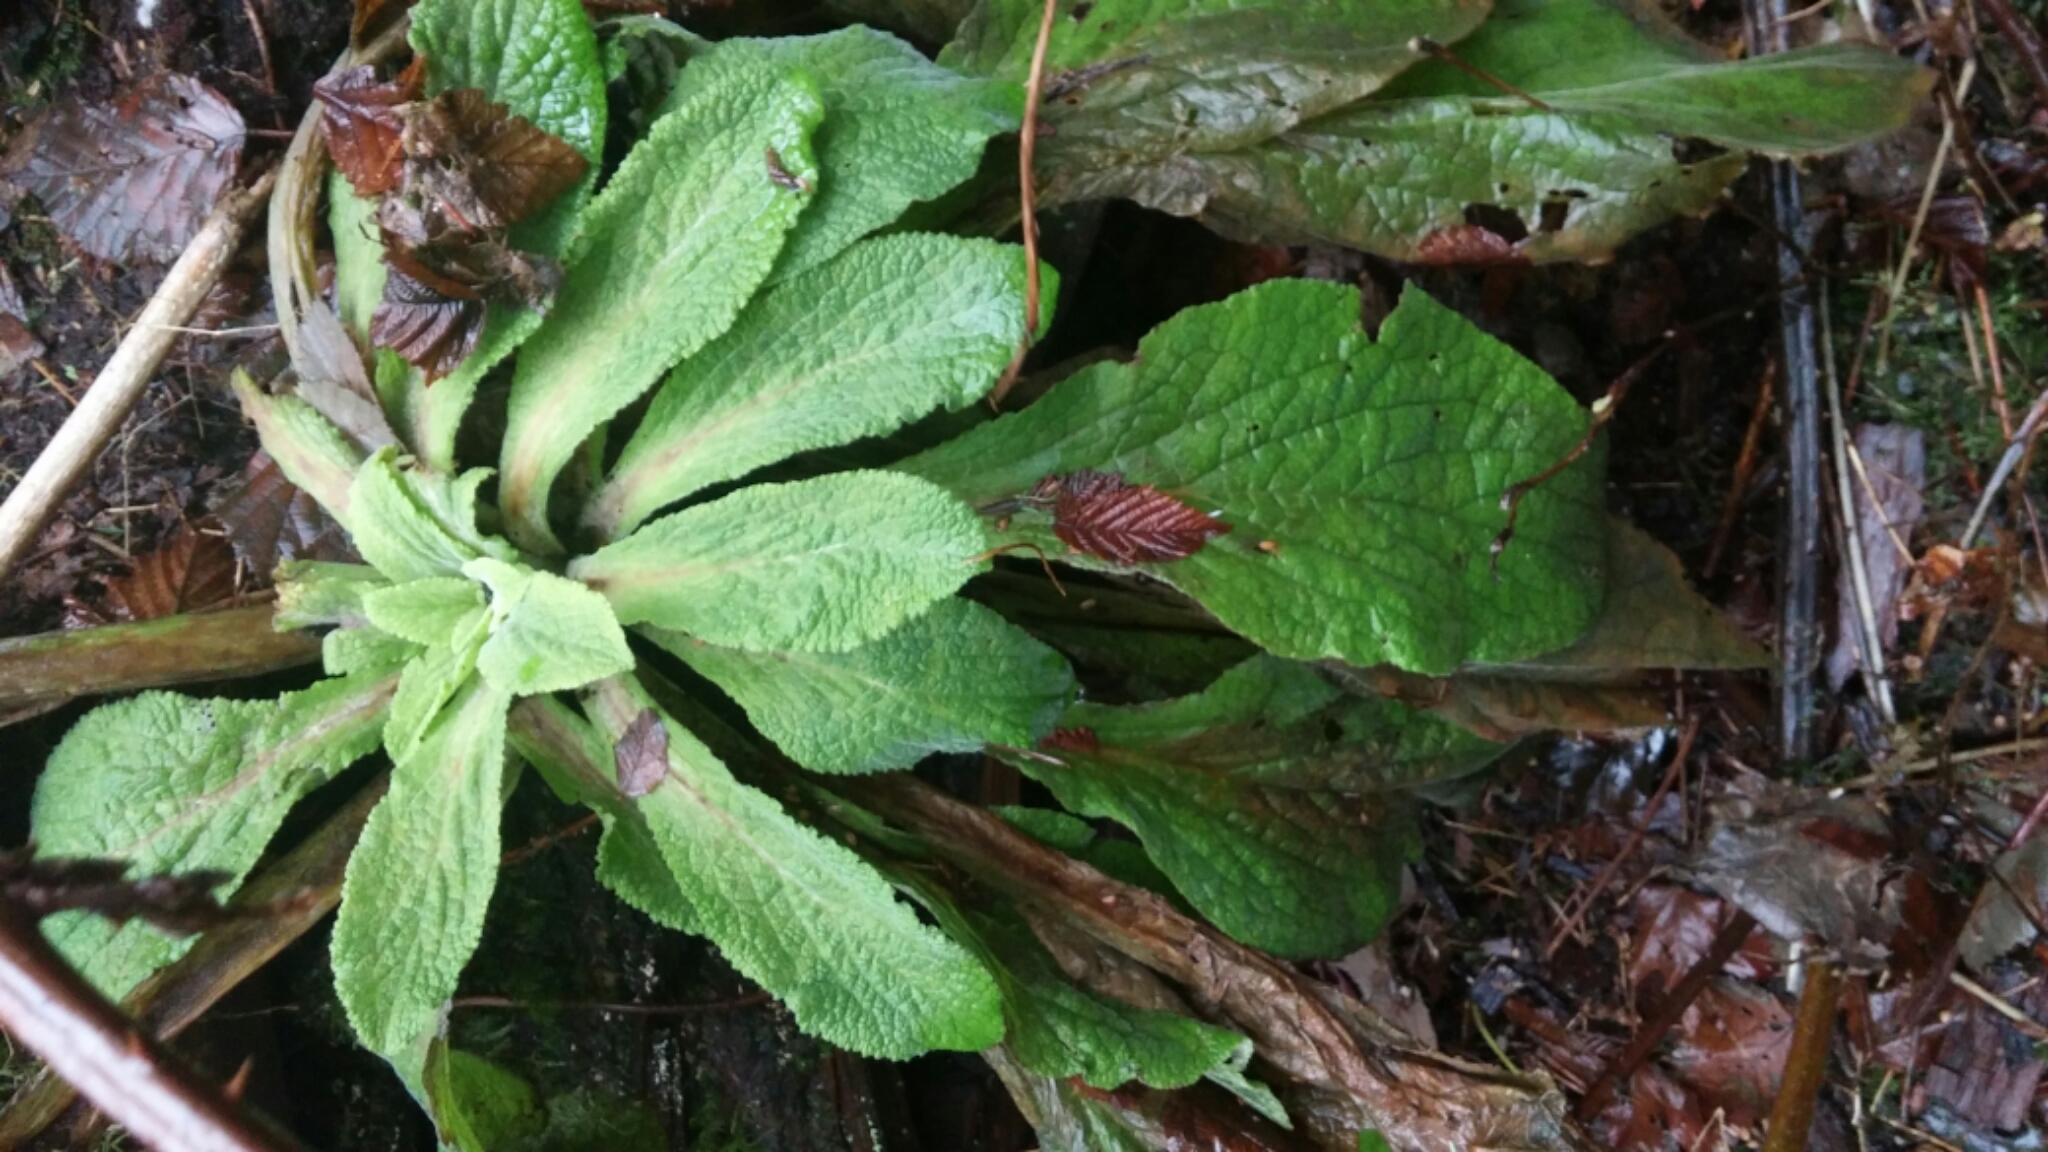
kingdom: Plantae
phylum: Tracheophyta
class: Magnoliopsida
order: Lamiales
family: Plantaginaceae
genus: Digitalis
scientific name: Digitalis purpurea
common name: Foxglove
